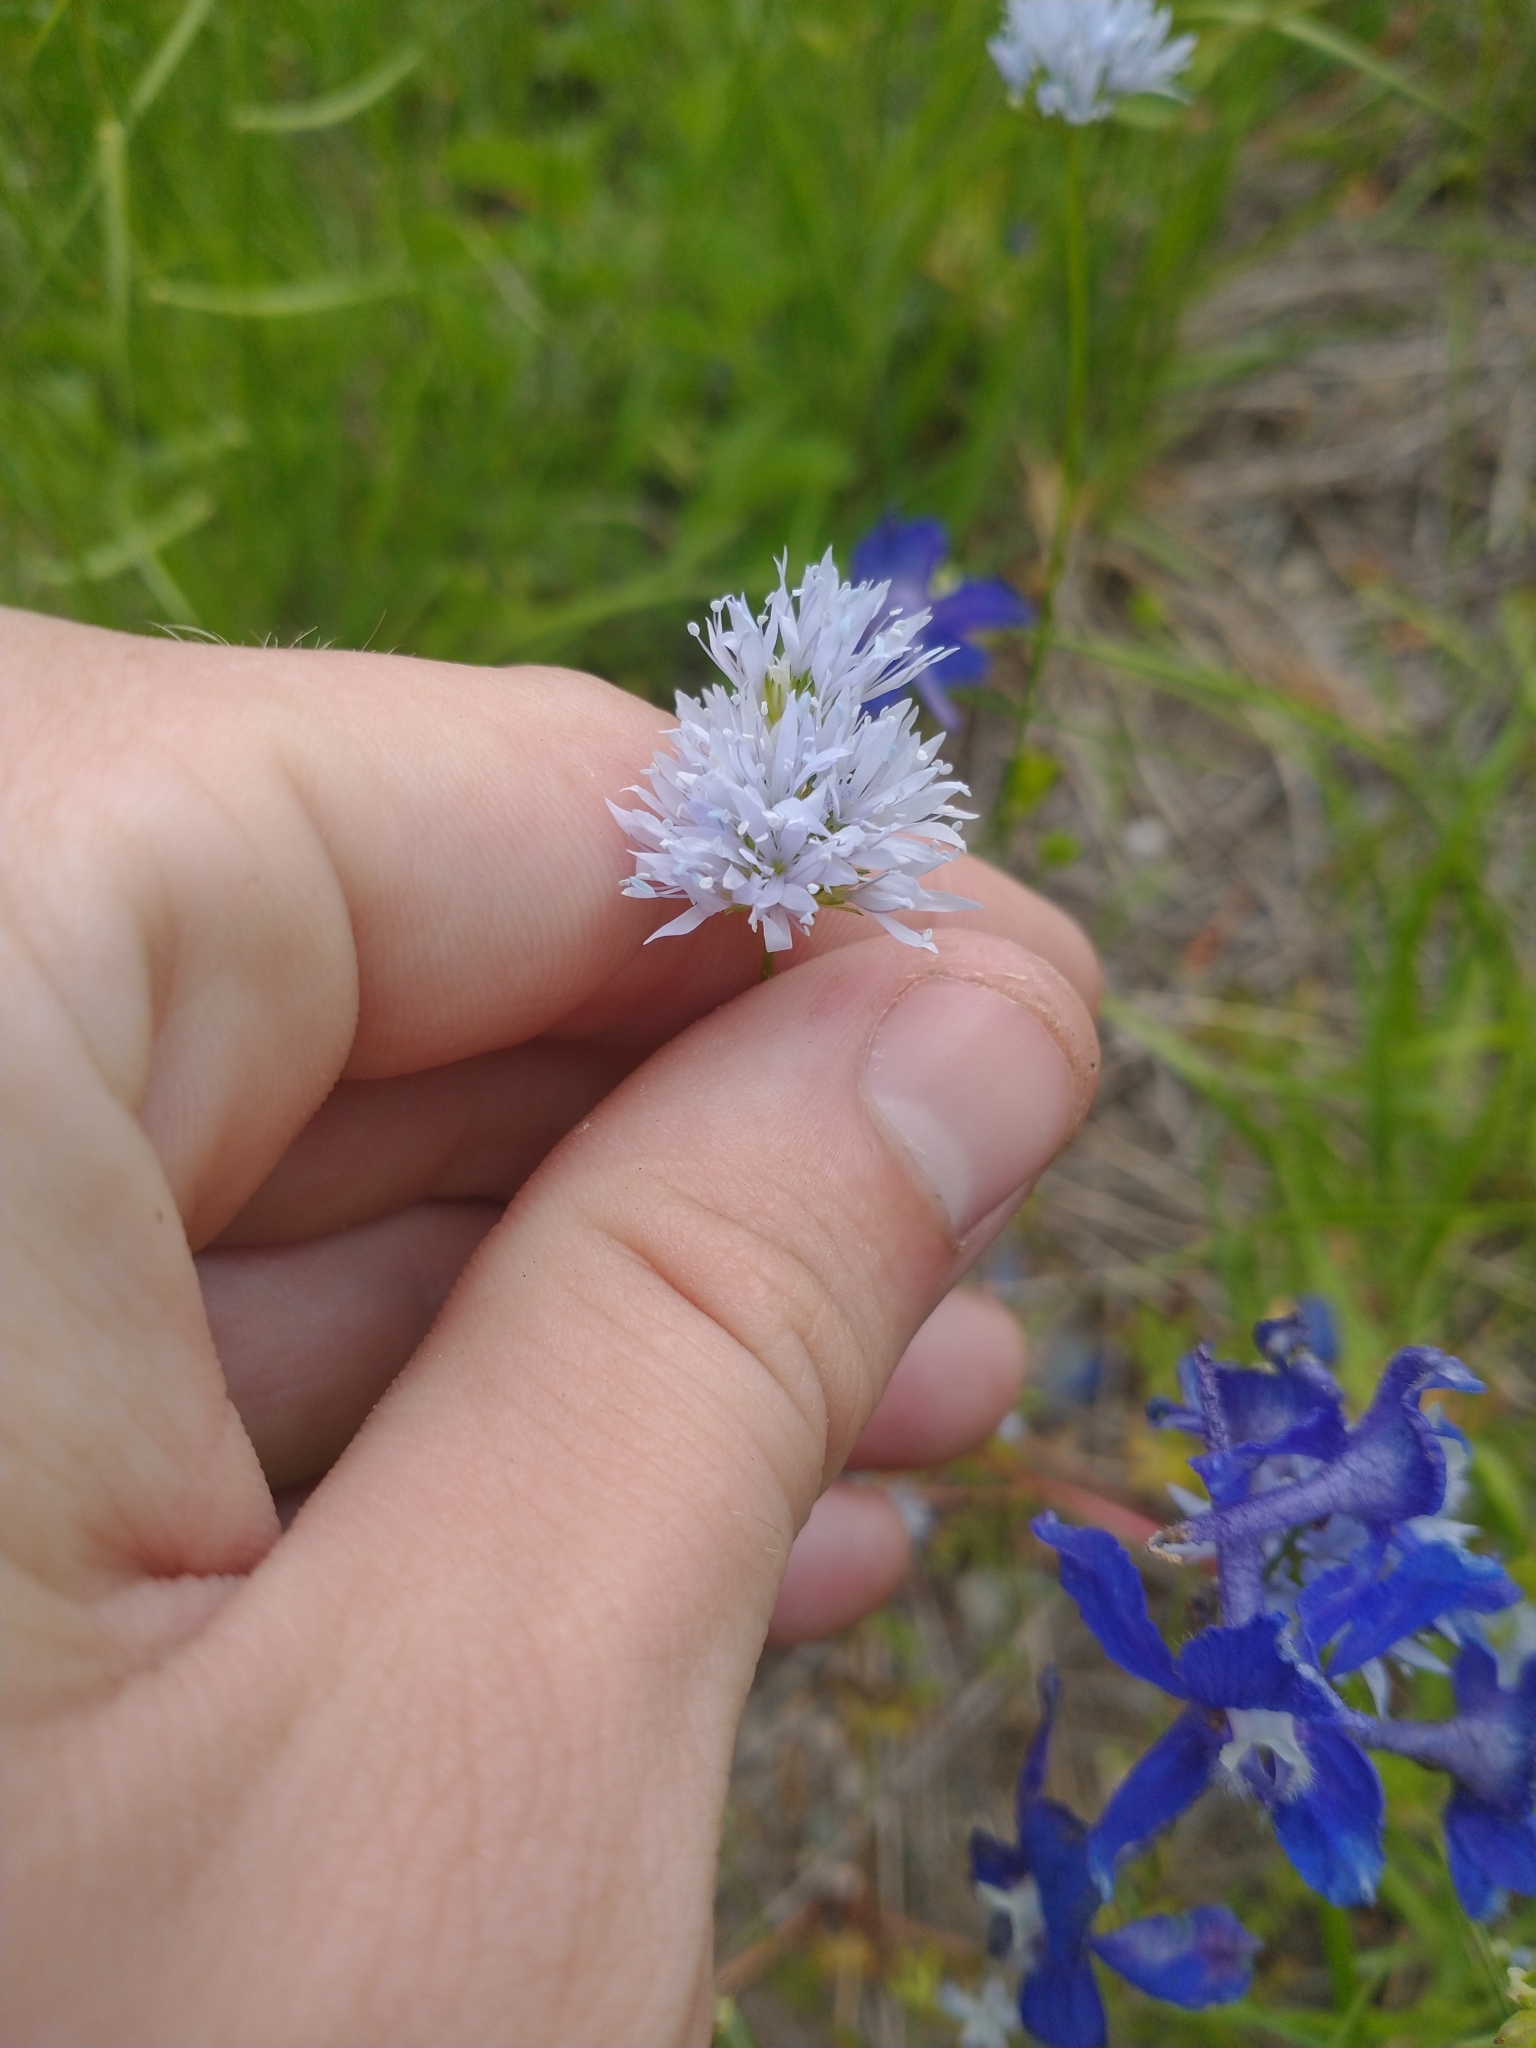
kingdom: Plantae
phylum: Tracheophyta
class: Magnoliopsida
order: Ericales
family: Polemoniaceae
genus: Gilia
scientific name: Gilia capitata
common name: Bluehead gilia
